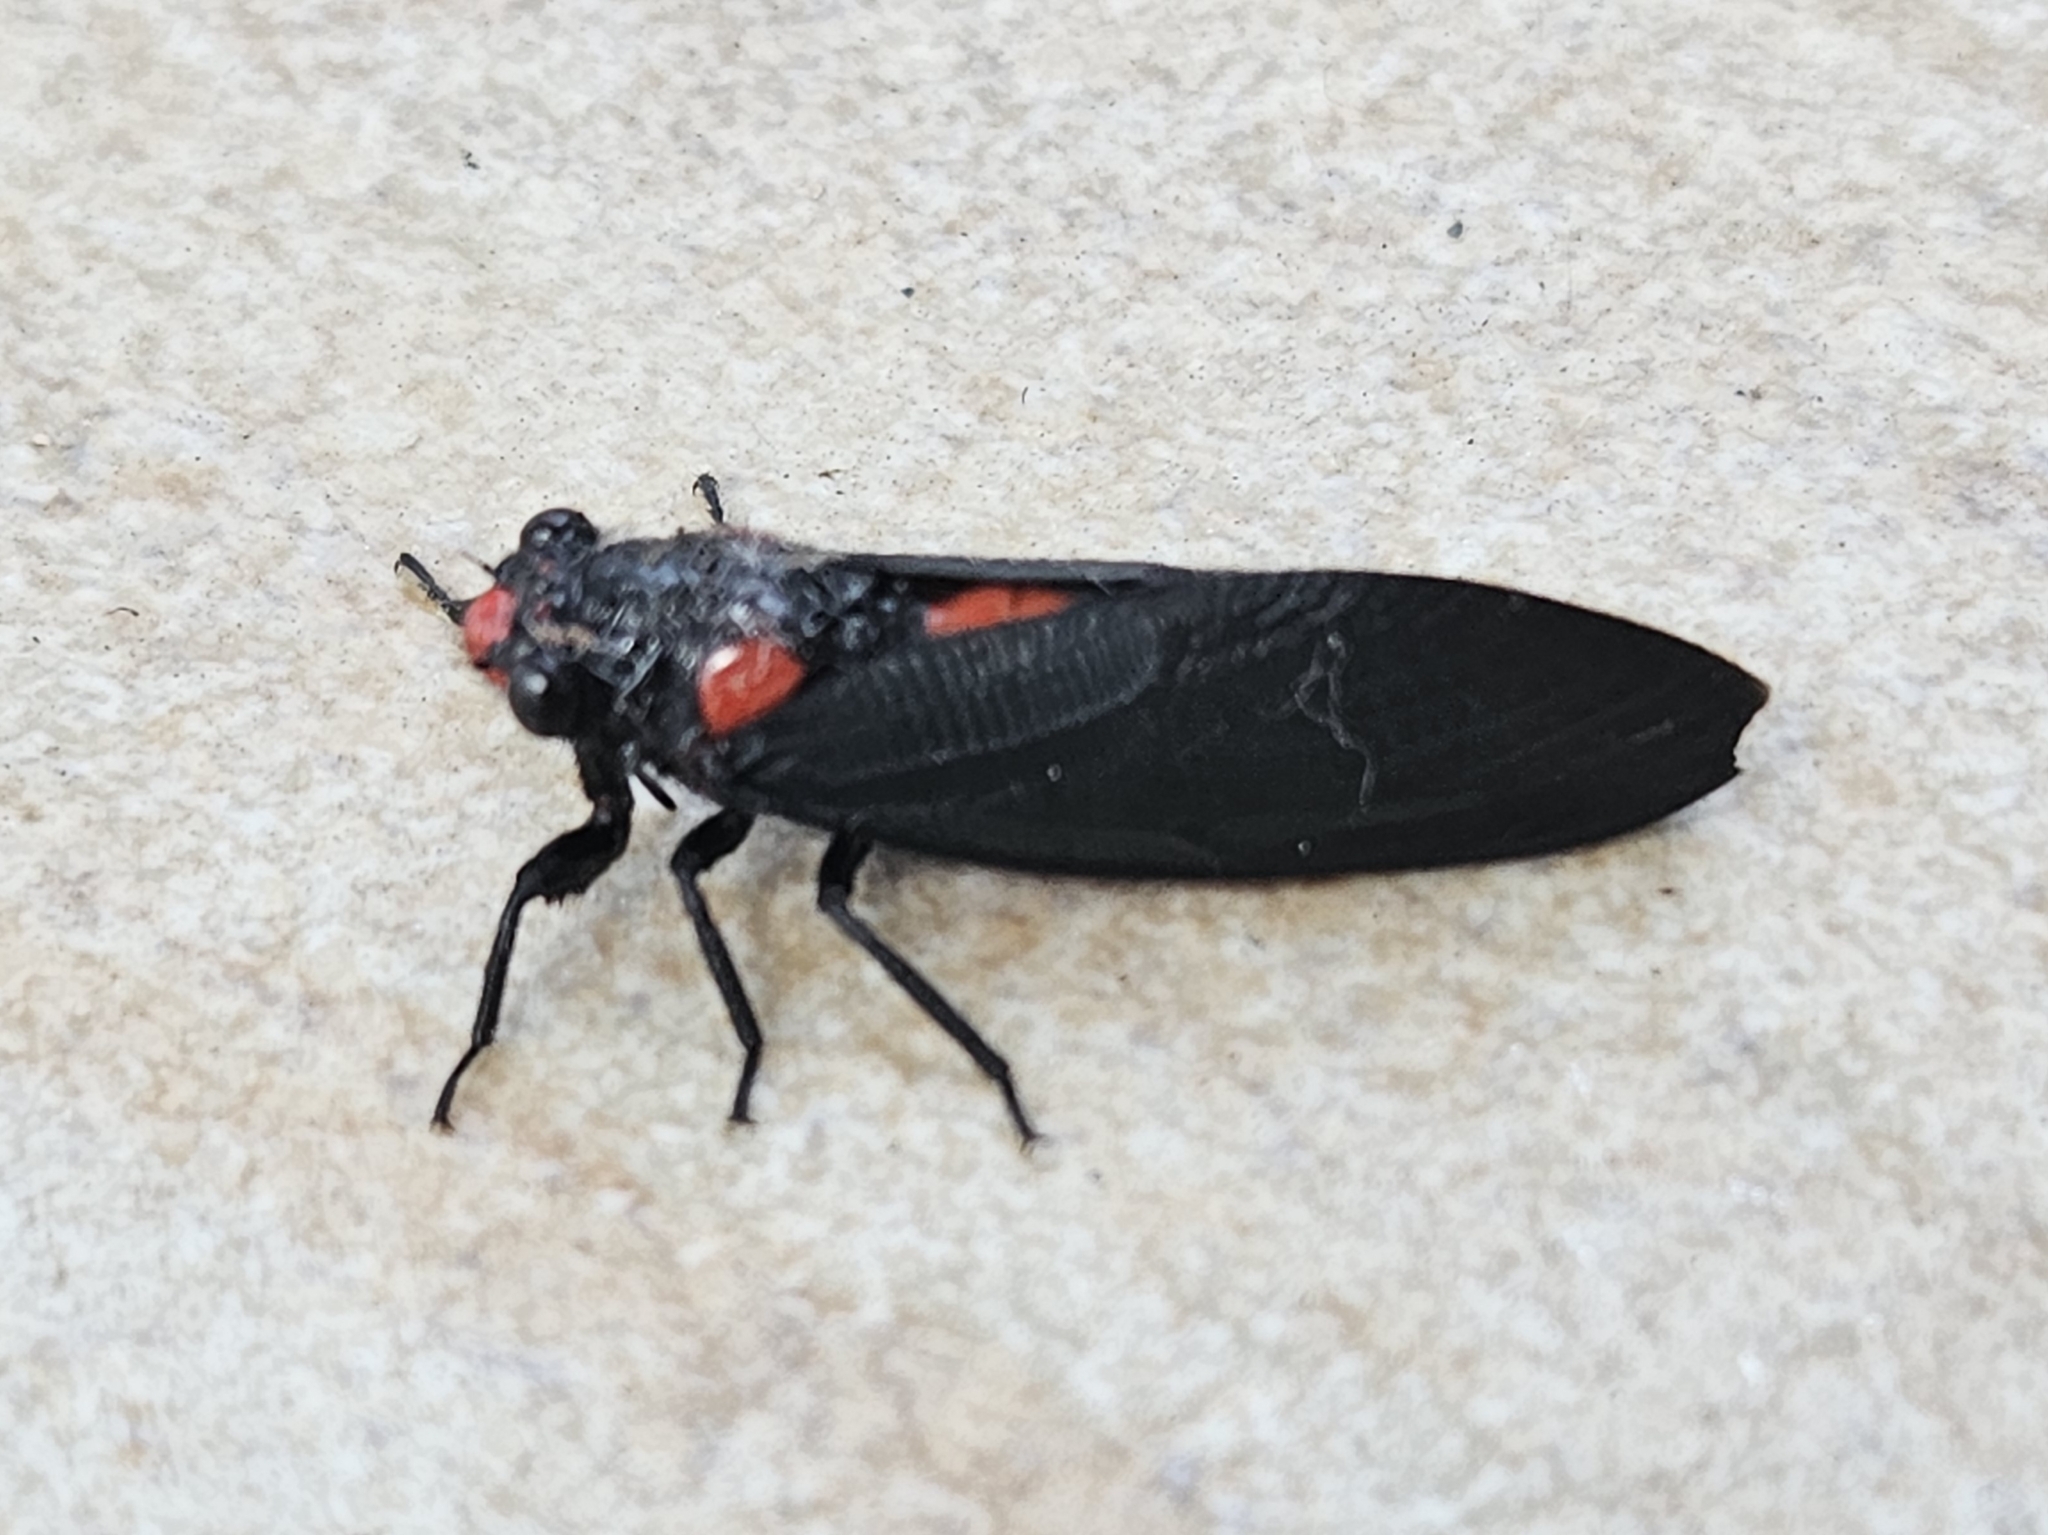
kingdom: Animalia
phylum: Arthropoda
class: Insecta
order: Hemiptera
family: Cicadidae
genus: Huechys
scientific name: Huechys sanguinea
